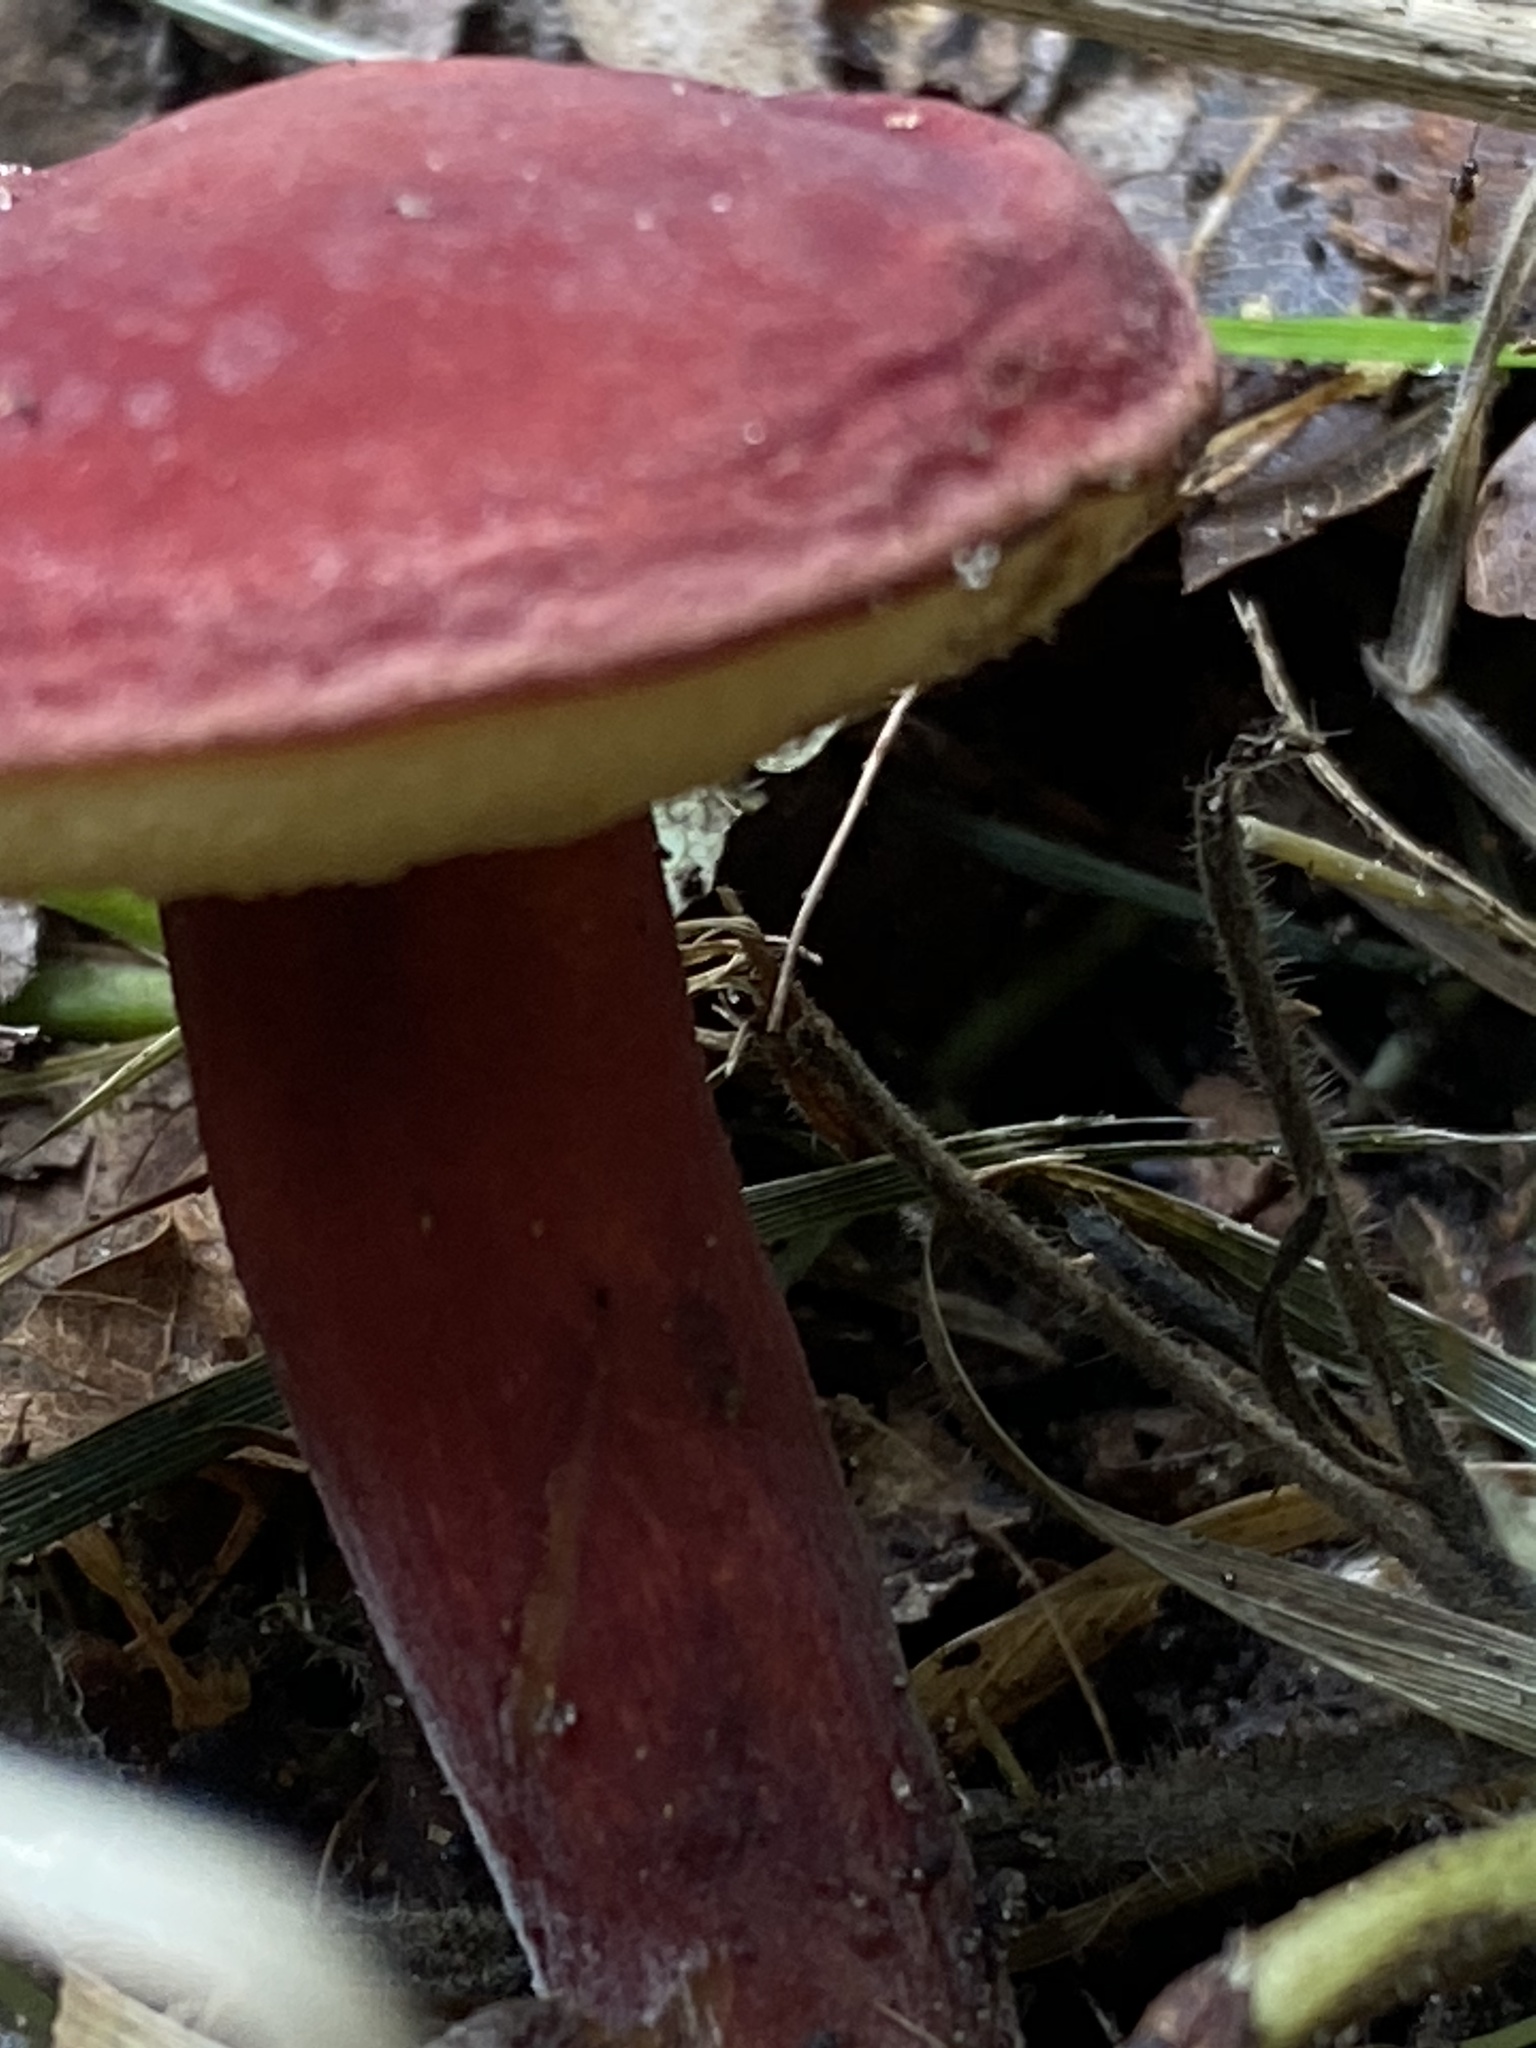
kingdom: Fungi
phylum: Basidiomycota
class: Agaricomycetes
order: Boletales
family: Boletaceae
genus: Hortiboletus
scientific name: Hortiboletus rubellus
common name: Ruby bolete
